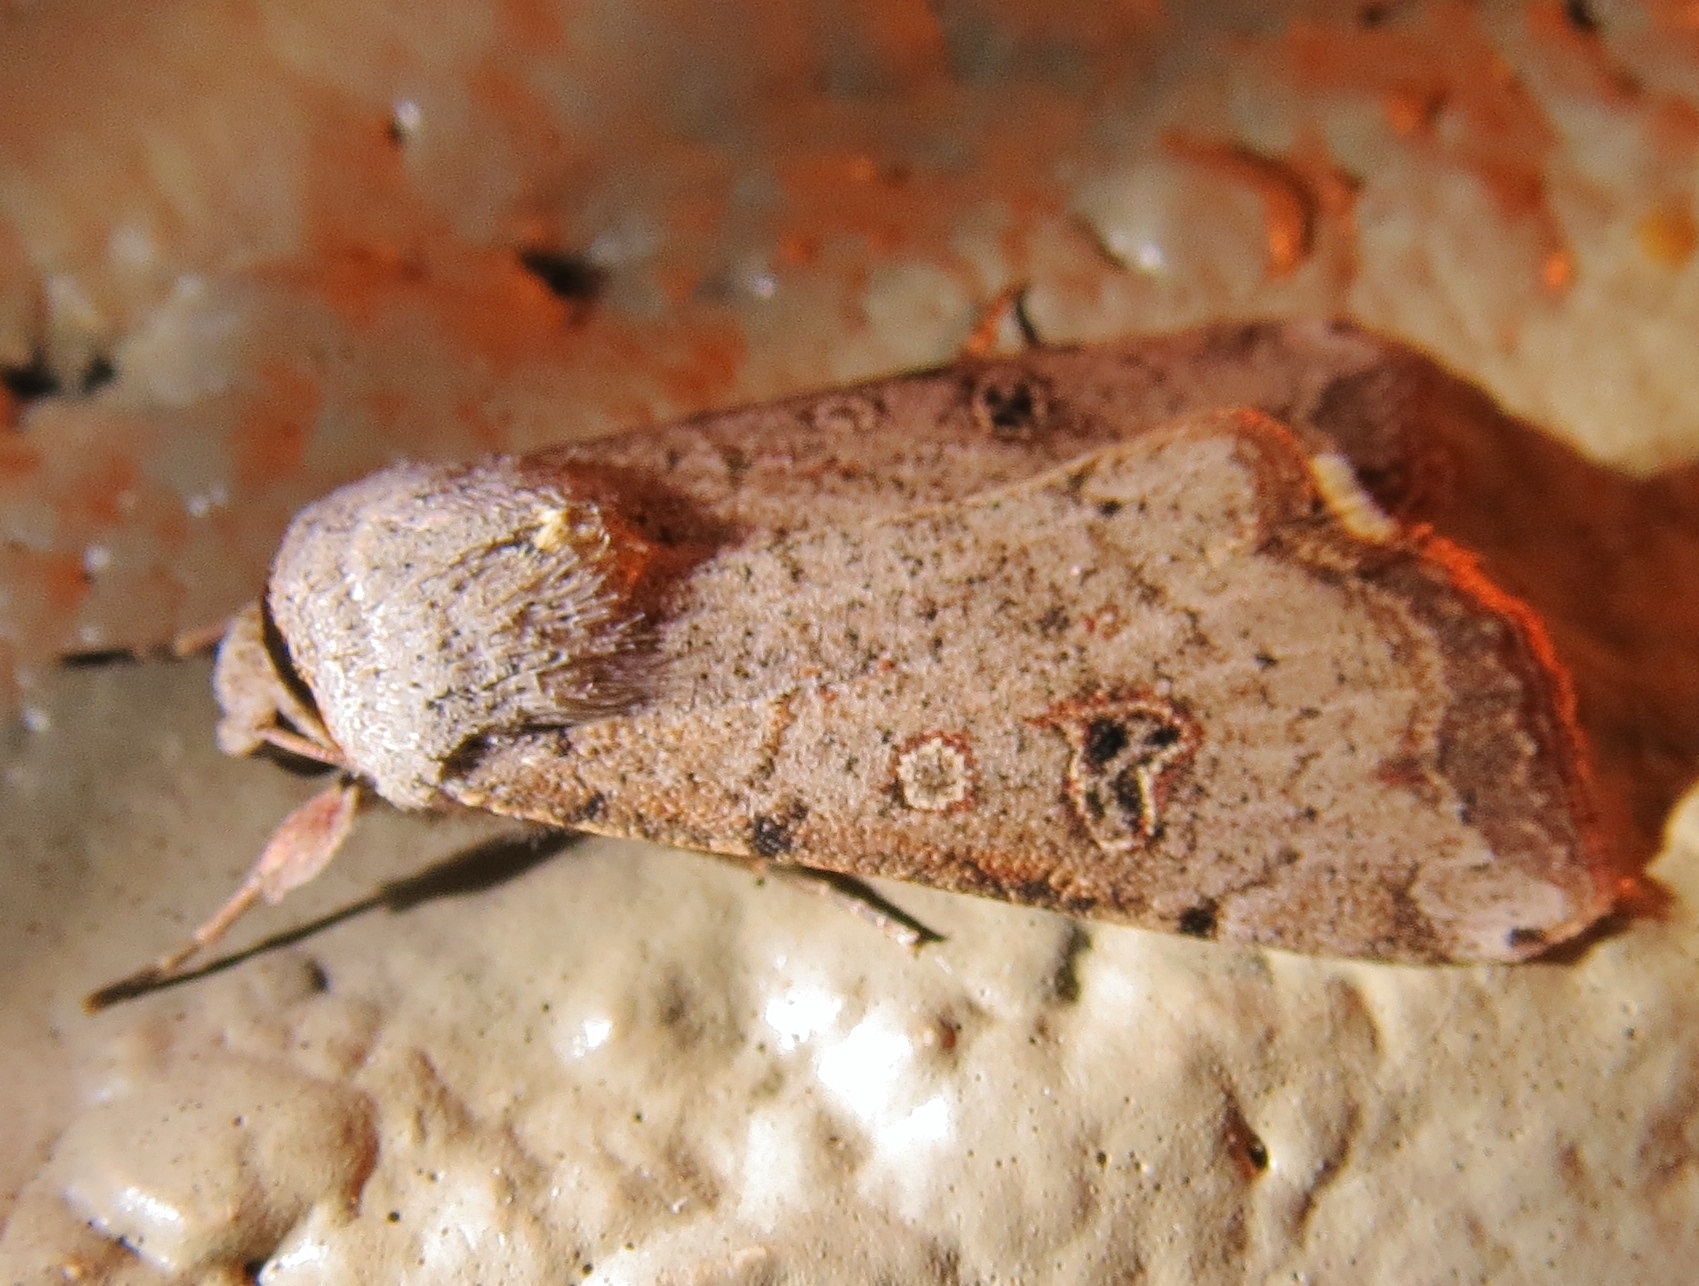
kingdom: Animalia
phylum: Arthropoda
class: Insecta
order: Lepidoptera
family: Noctuidae
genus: Anicla
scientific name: Anicla infecta
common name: Green cutworm
